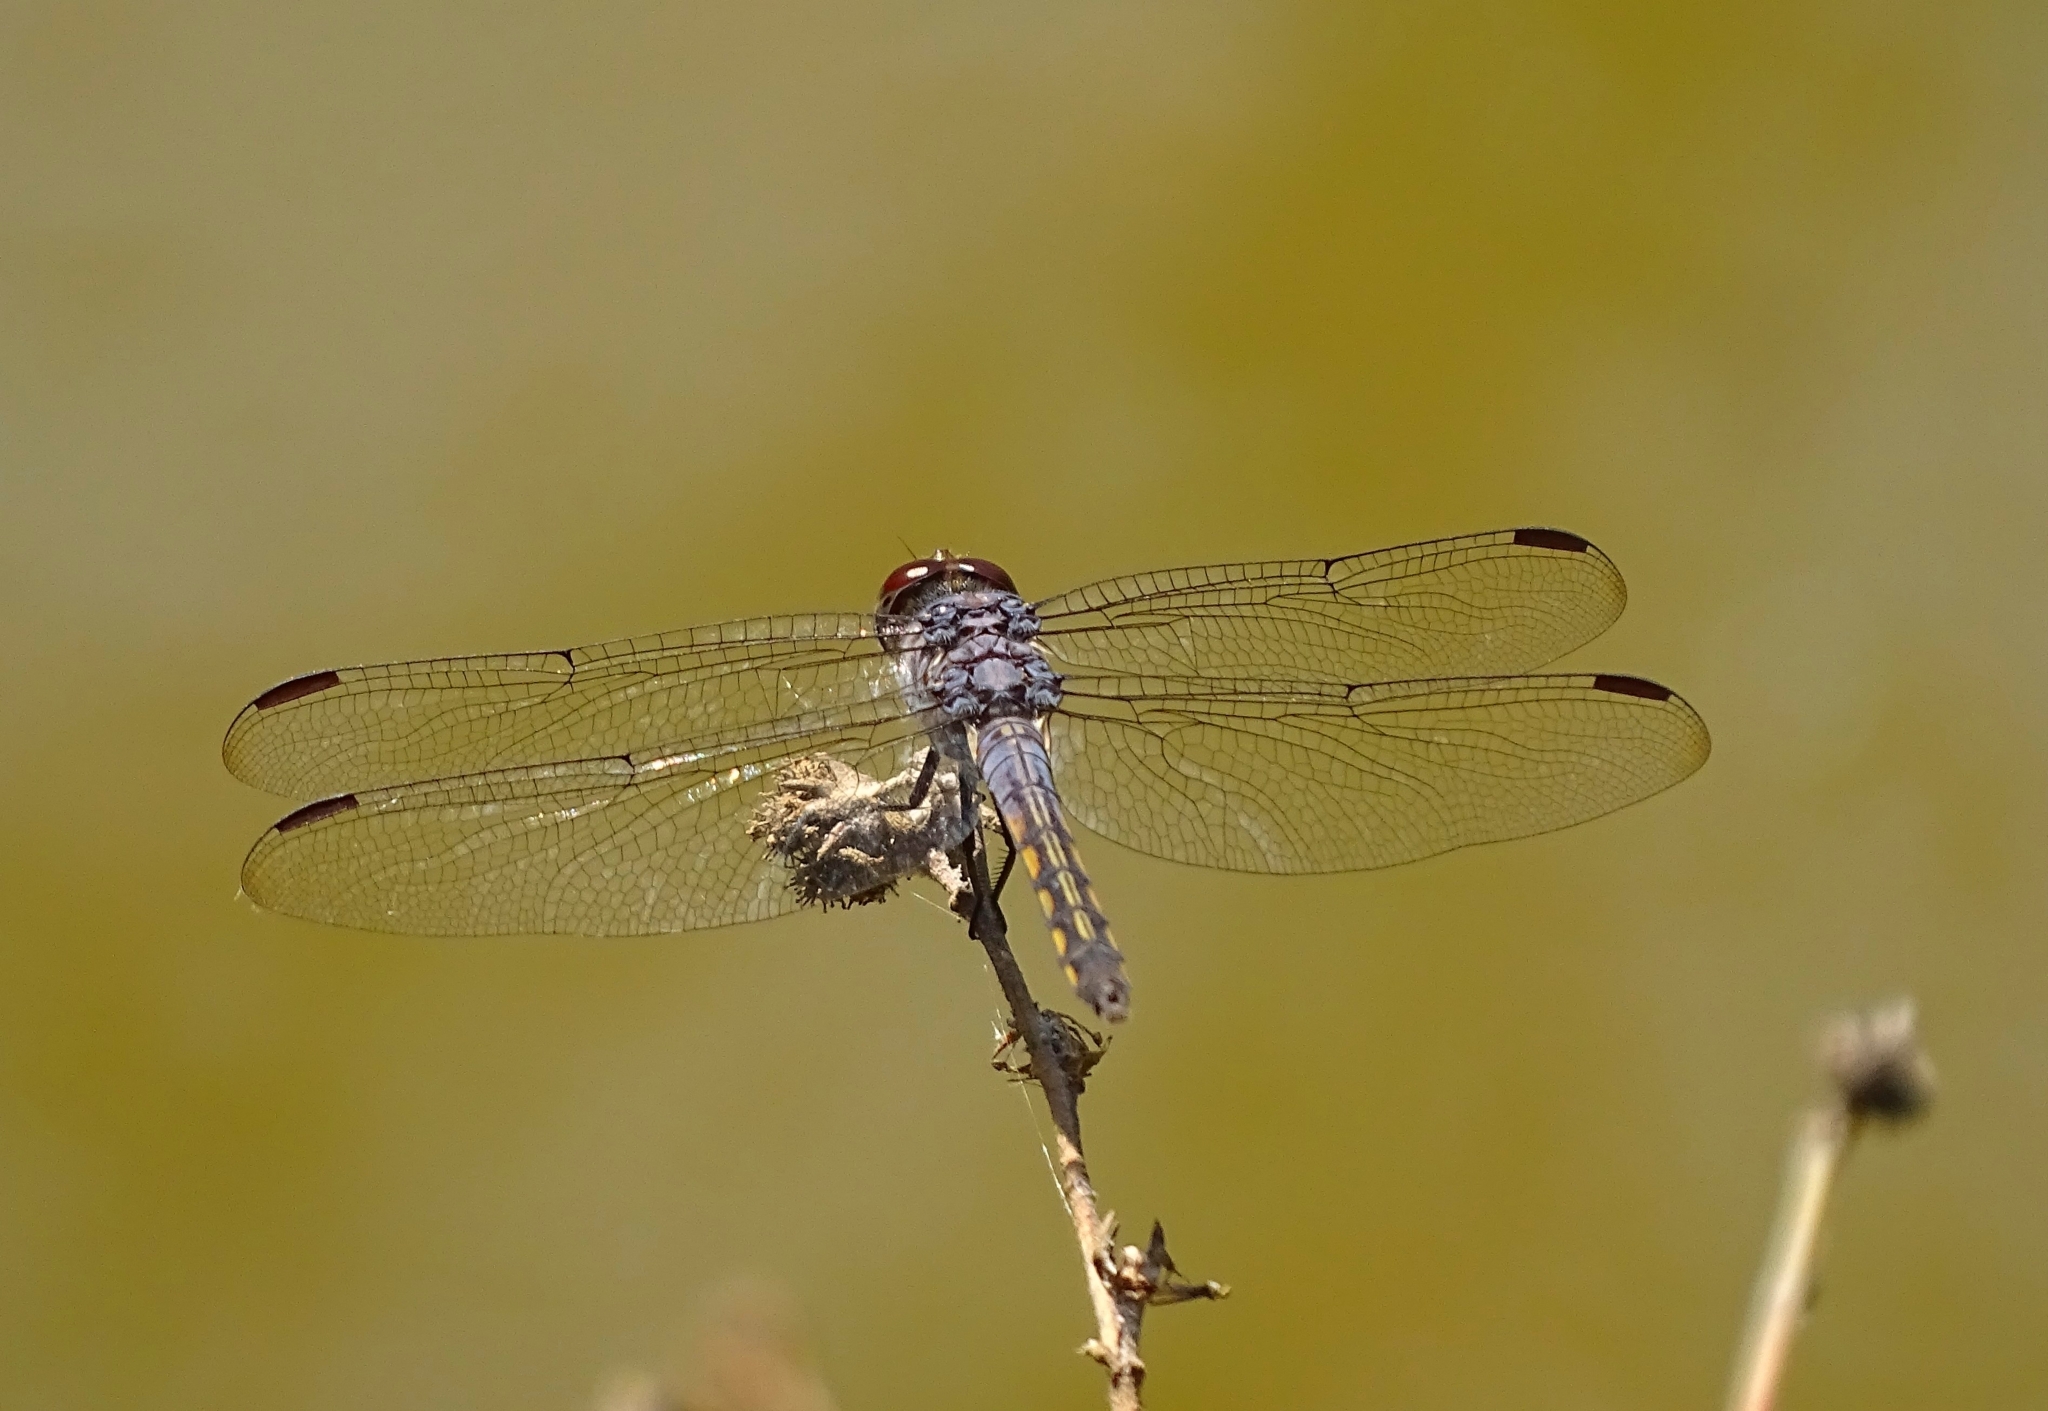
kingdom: Animalia
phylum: Arthropoda
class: Insecta
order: Odonata
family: Libellulidae
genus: Potamarcha
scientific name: Potamarcha congener
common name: Blue chaser
